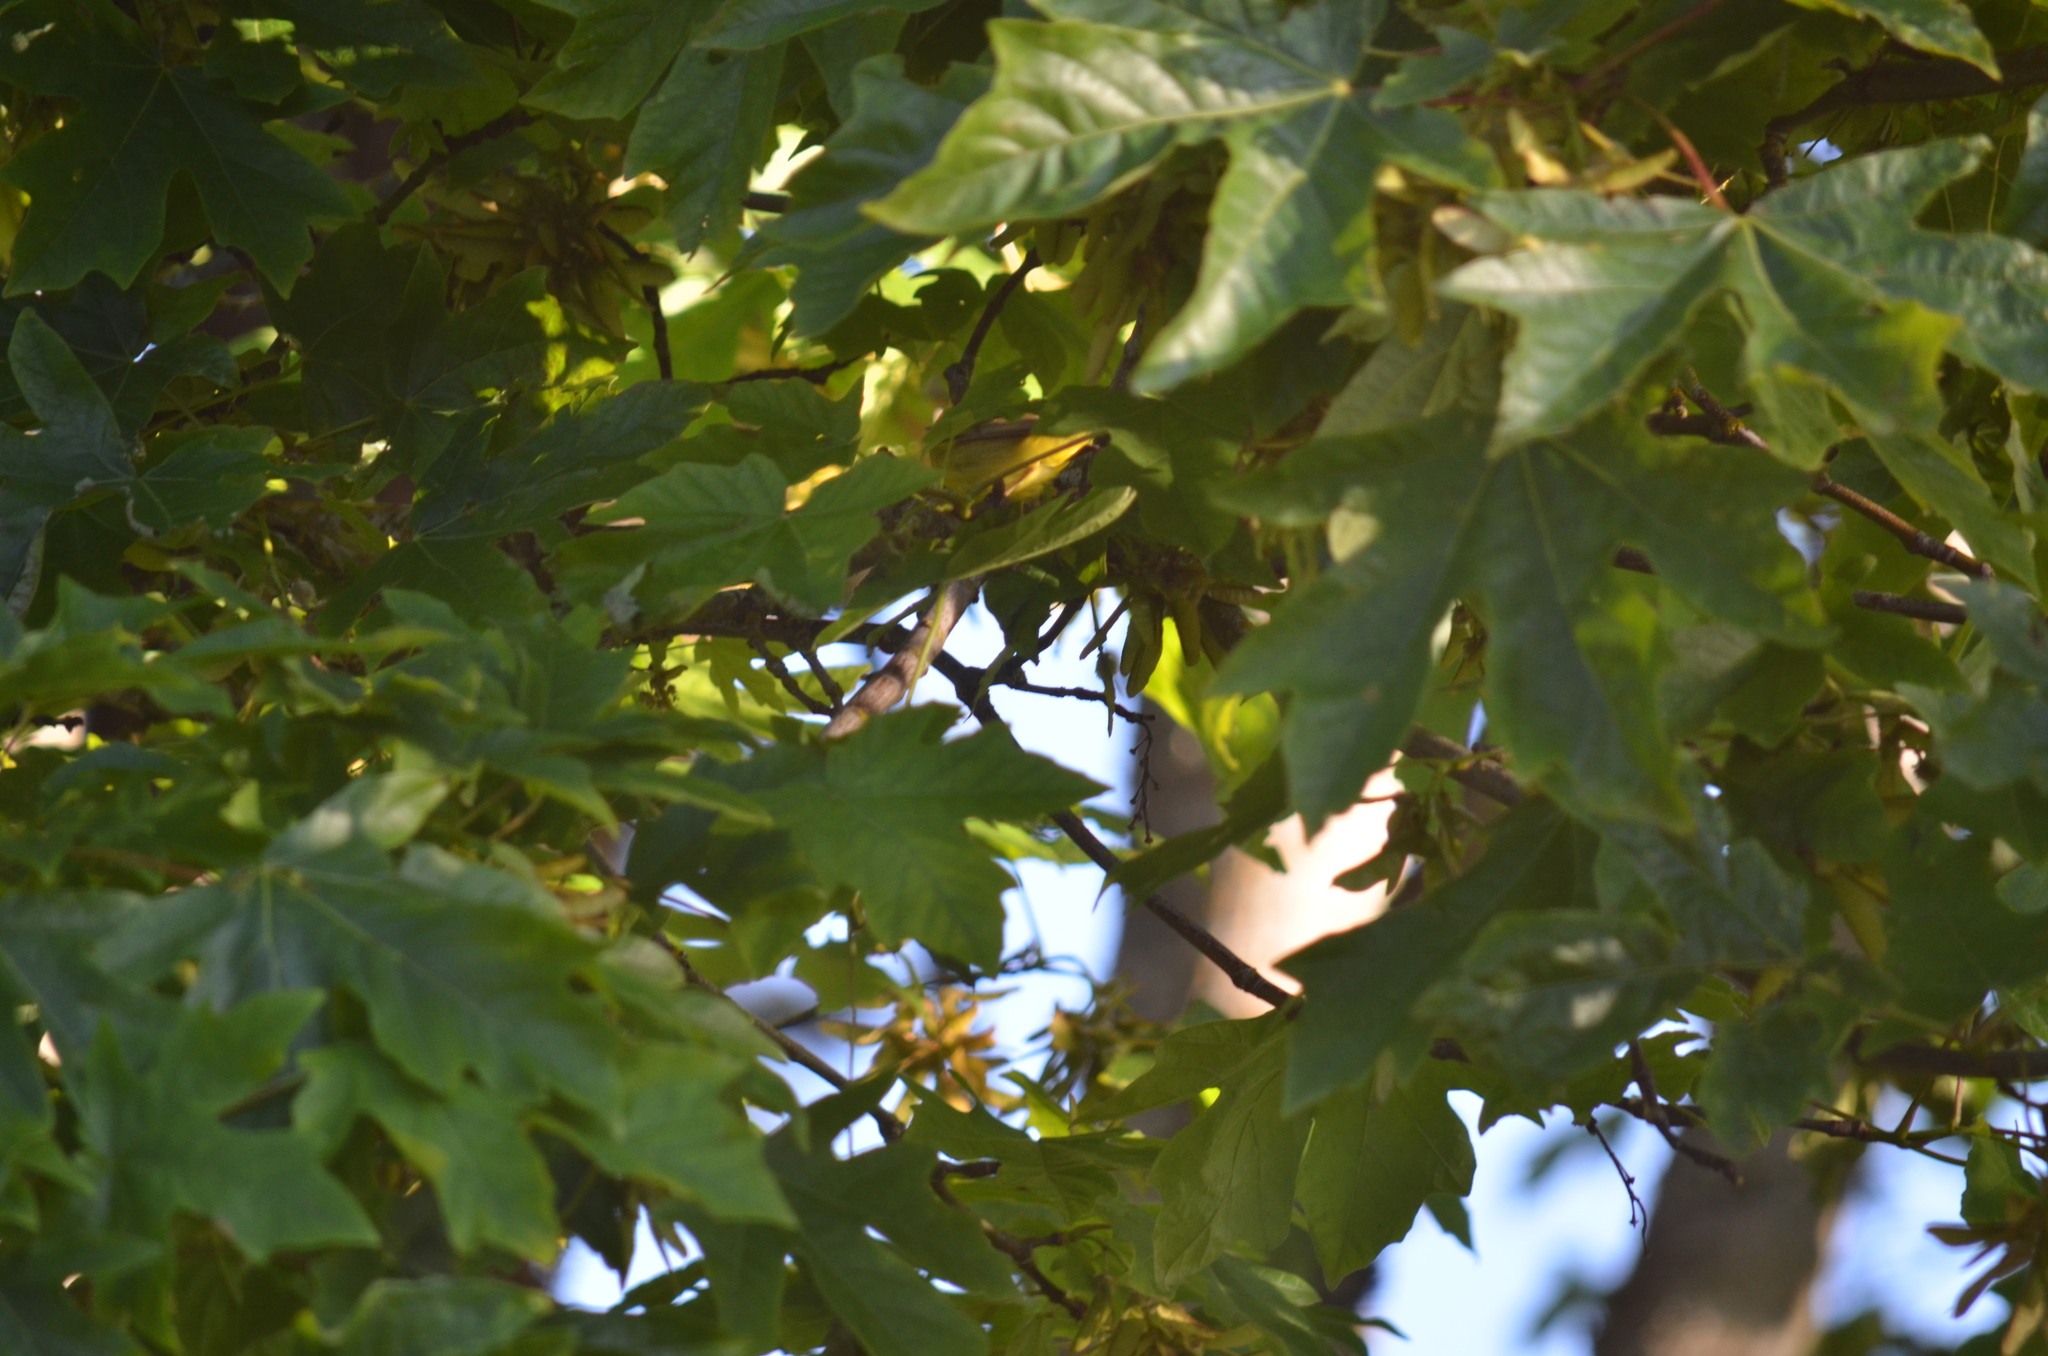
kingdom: Animalia
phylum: Chordata
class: Aves
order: Passeriformes
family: Parulidae
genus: Cardellina
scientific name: Cardellina pusilla
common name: Wilson's warbler
